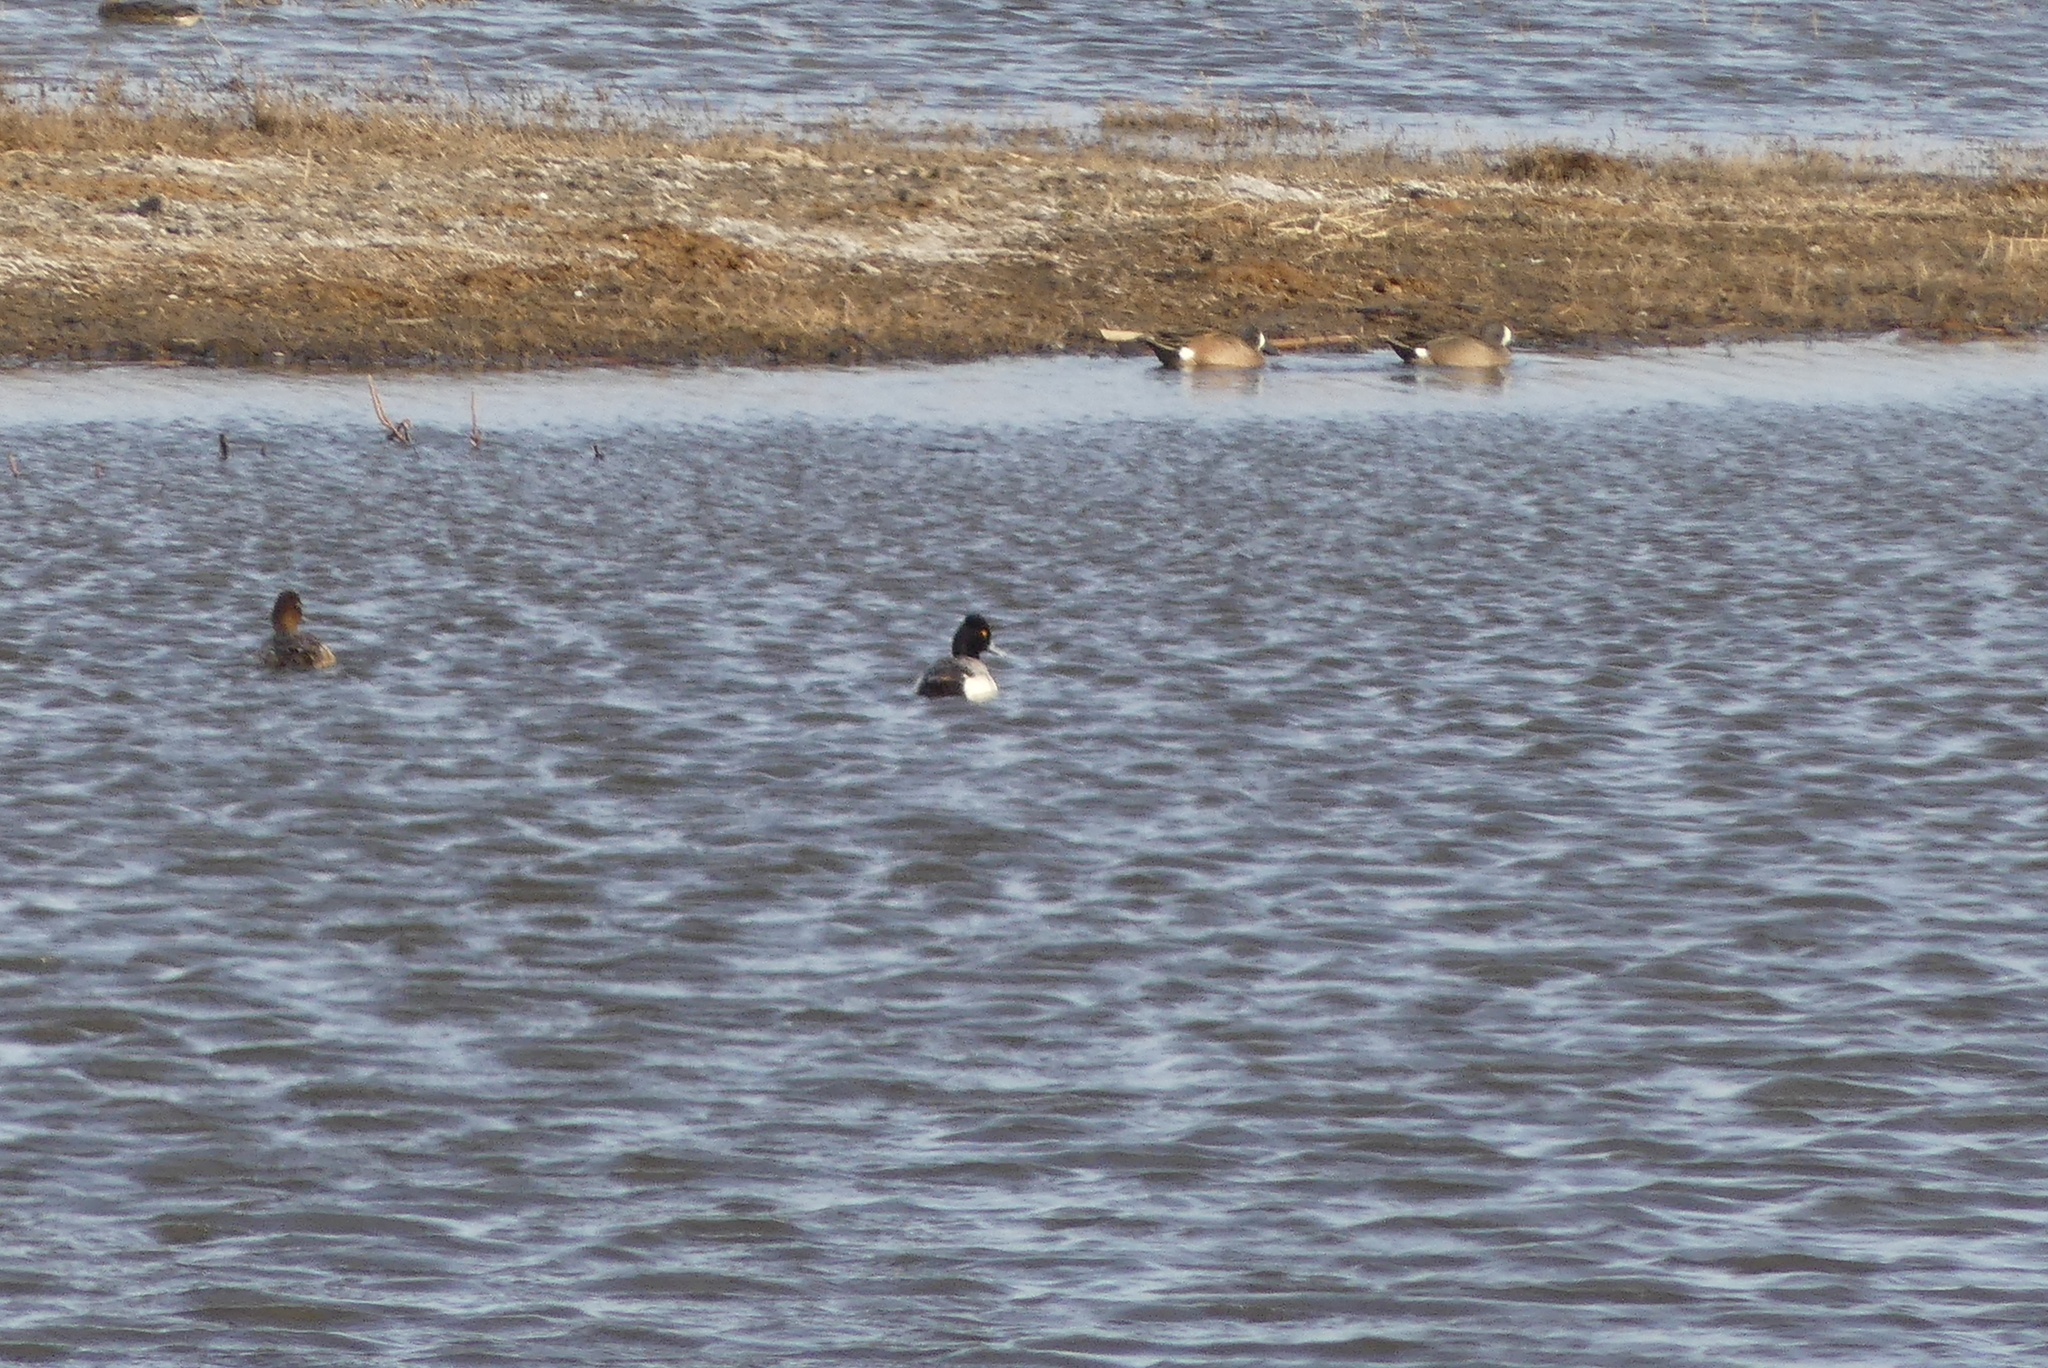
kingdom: Animalia
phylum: Chordata
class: Aves
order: Anseriformes
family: Anatidae
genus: Aythya
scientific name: Aythya collaris
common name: Ring-necked duck
